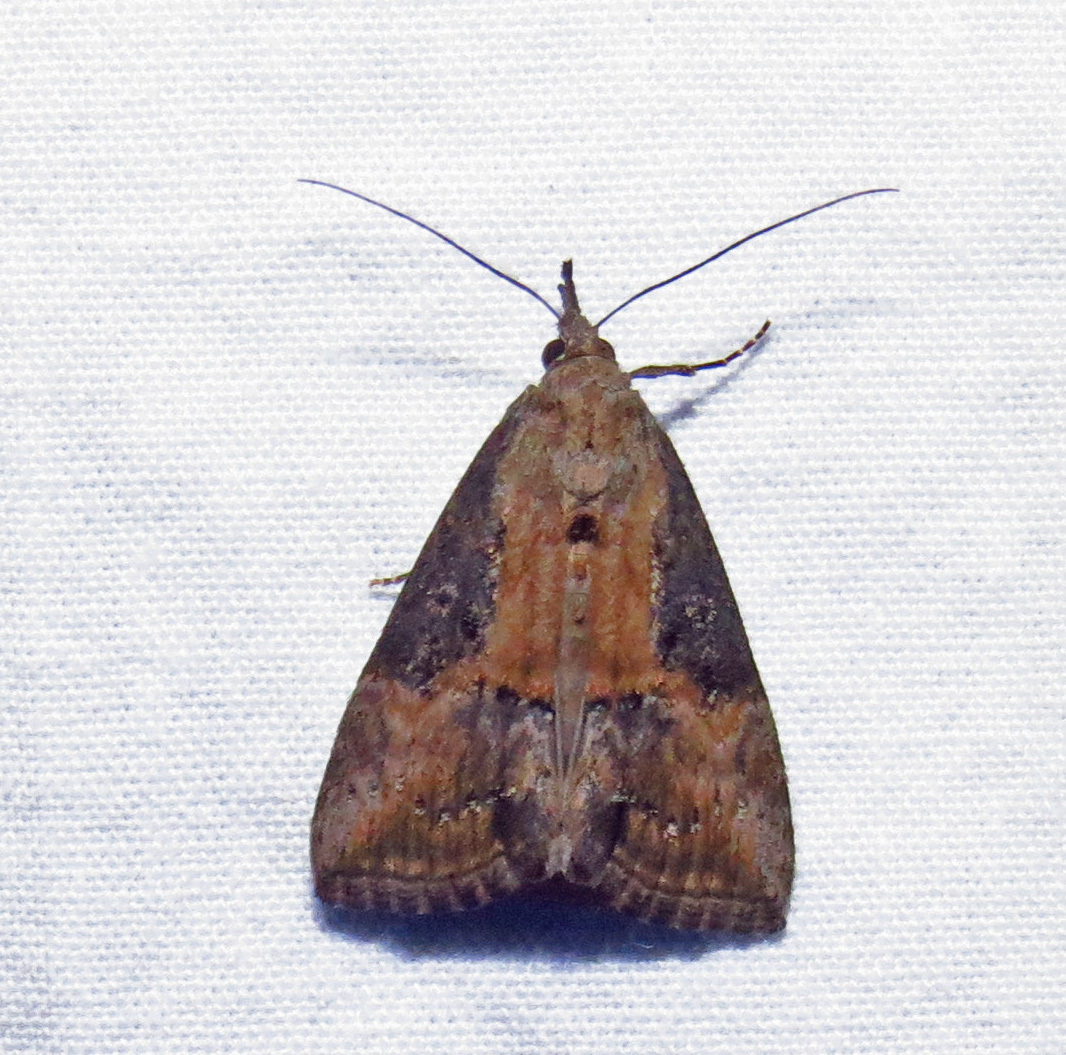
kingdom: Animalia
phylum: Arthropoda
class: Insecta
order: Lepidoptera
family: Erebidae
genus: Hypena
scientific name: Hypena scabra
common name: Green cloverworm
